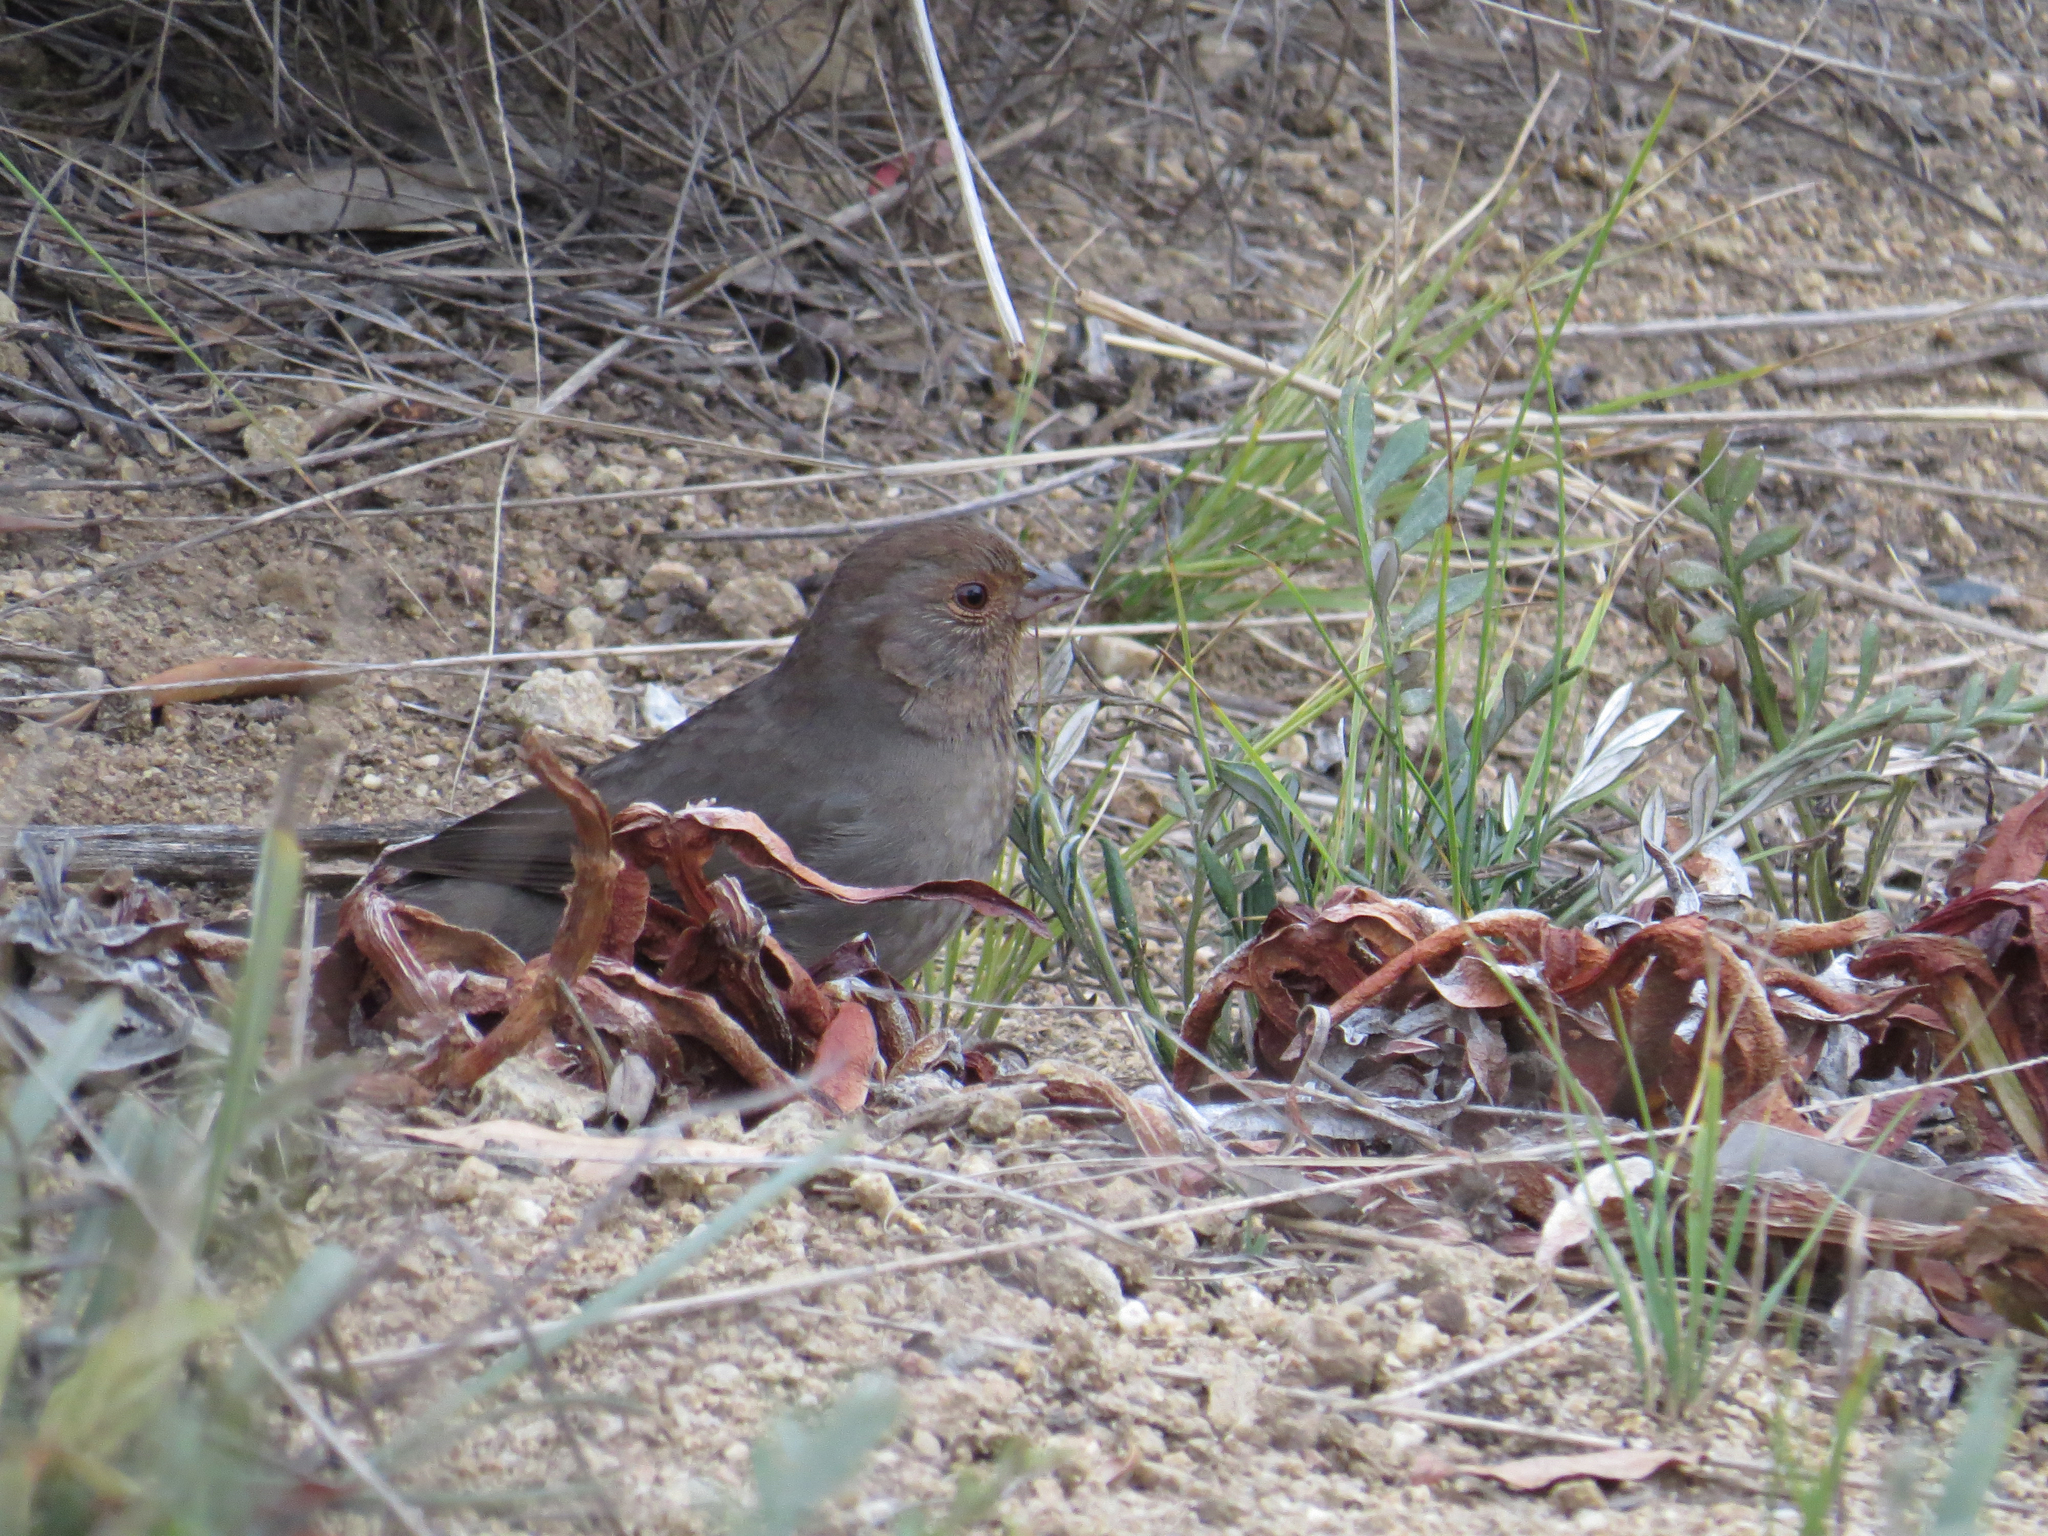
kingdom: Animalia
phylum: Chordata
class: Aves
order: Passeriformes
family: Passerellidae
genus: Melozone
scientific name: Melozone crissalis
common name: California towhee
